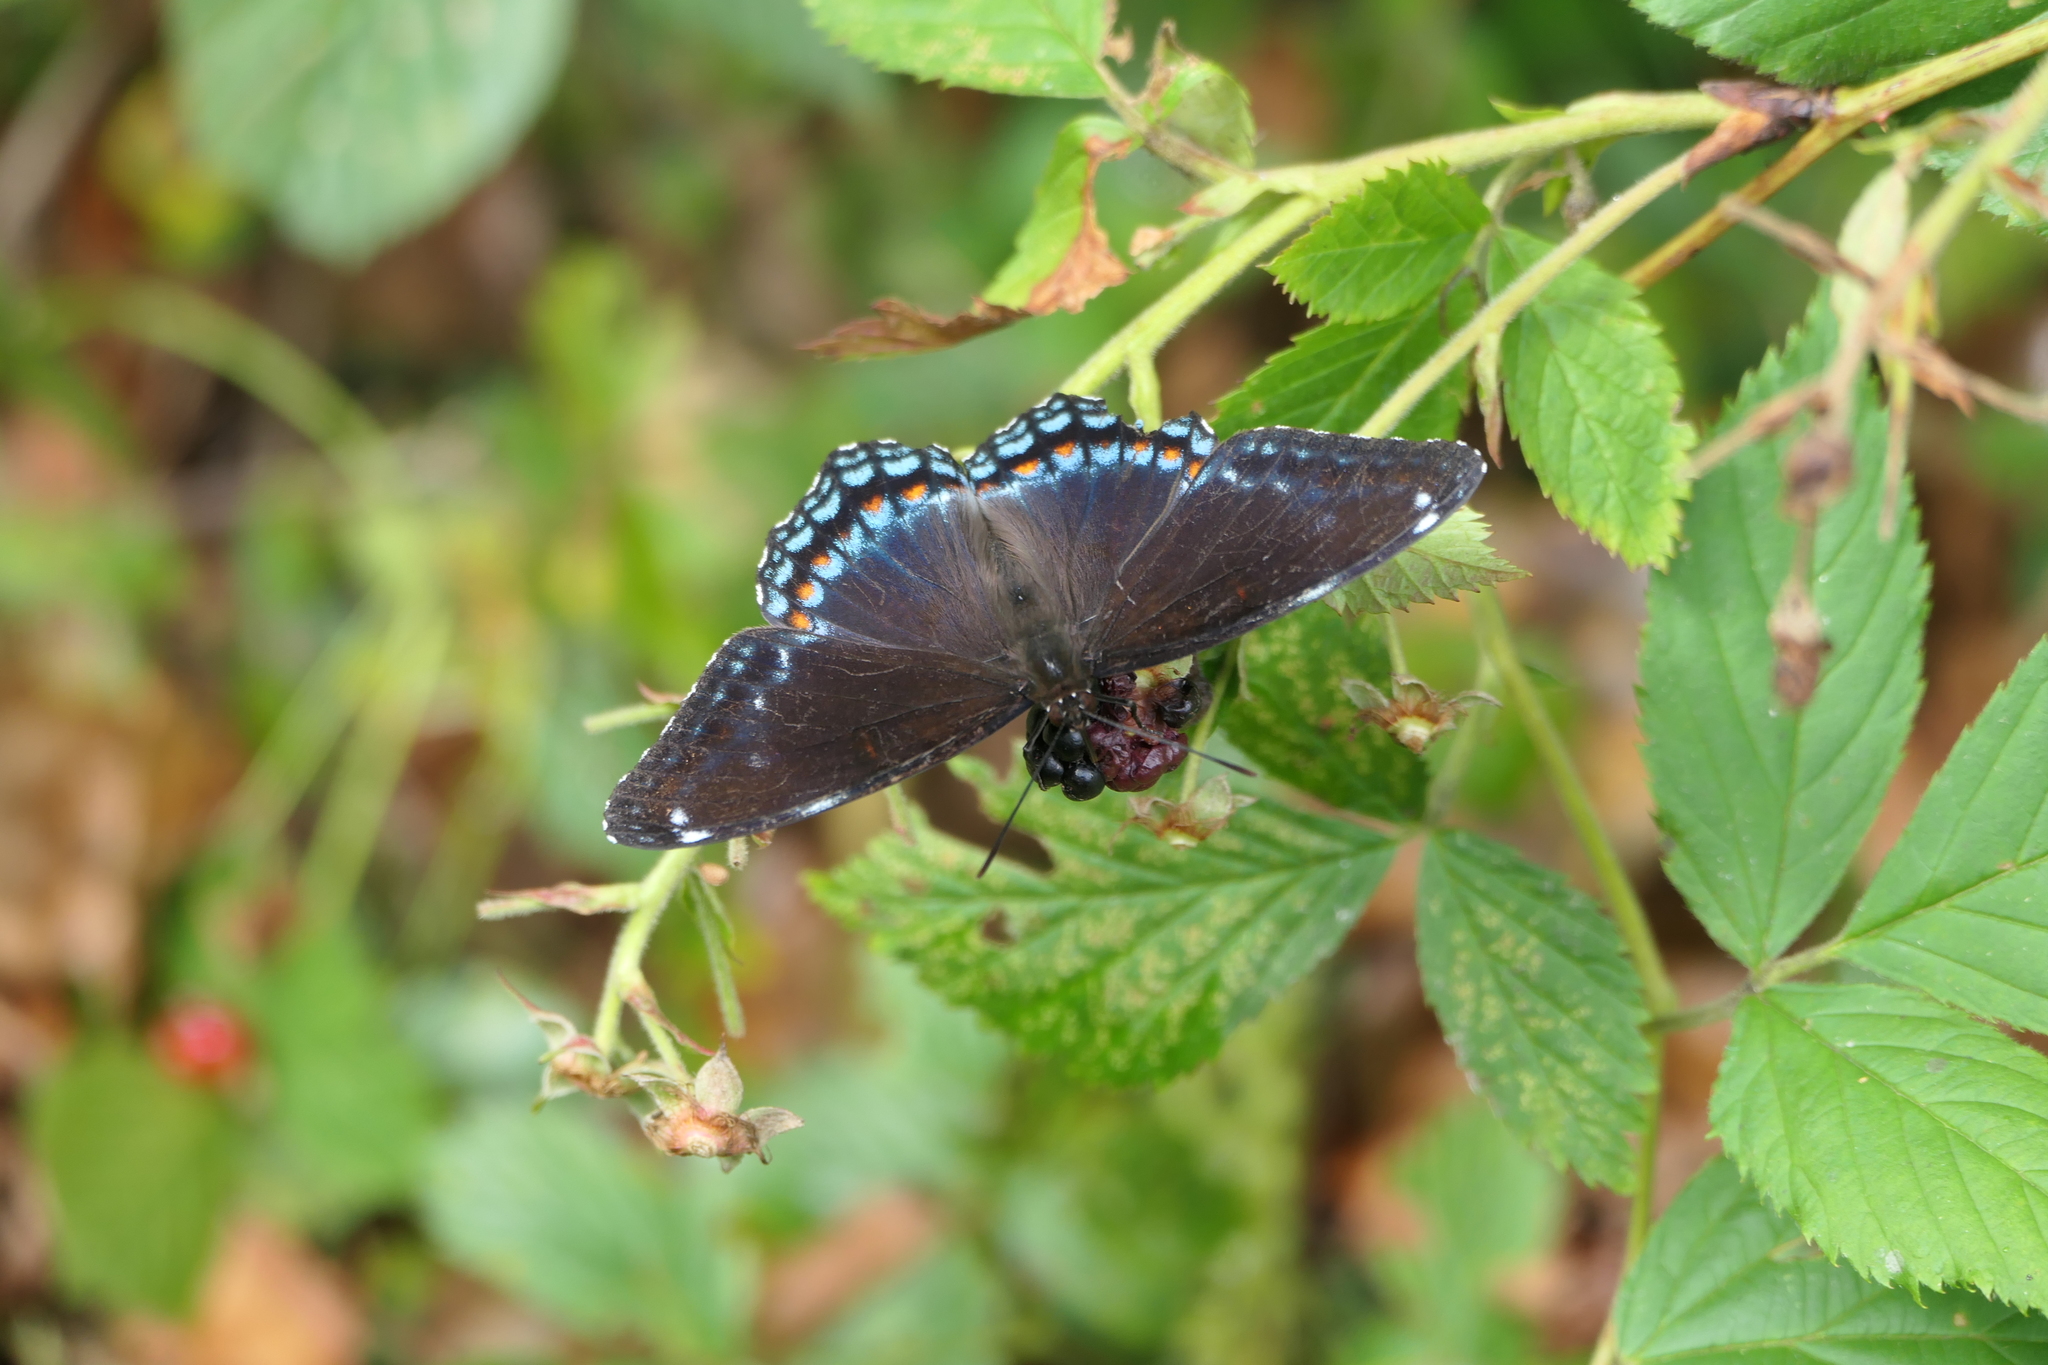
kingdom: Animalia
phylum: Arthropoda
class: Insecta
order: Lepidoptera
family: Nymphalidae
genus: Limenitis
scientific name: Limenitis arthemis
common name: Red-spotted admiral
